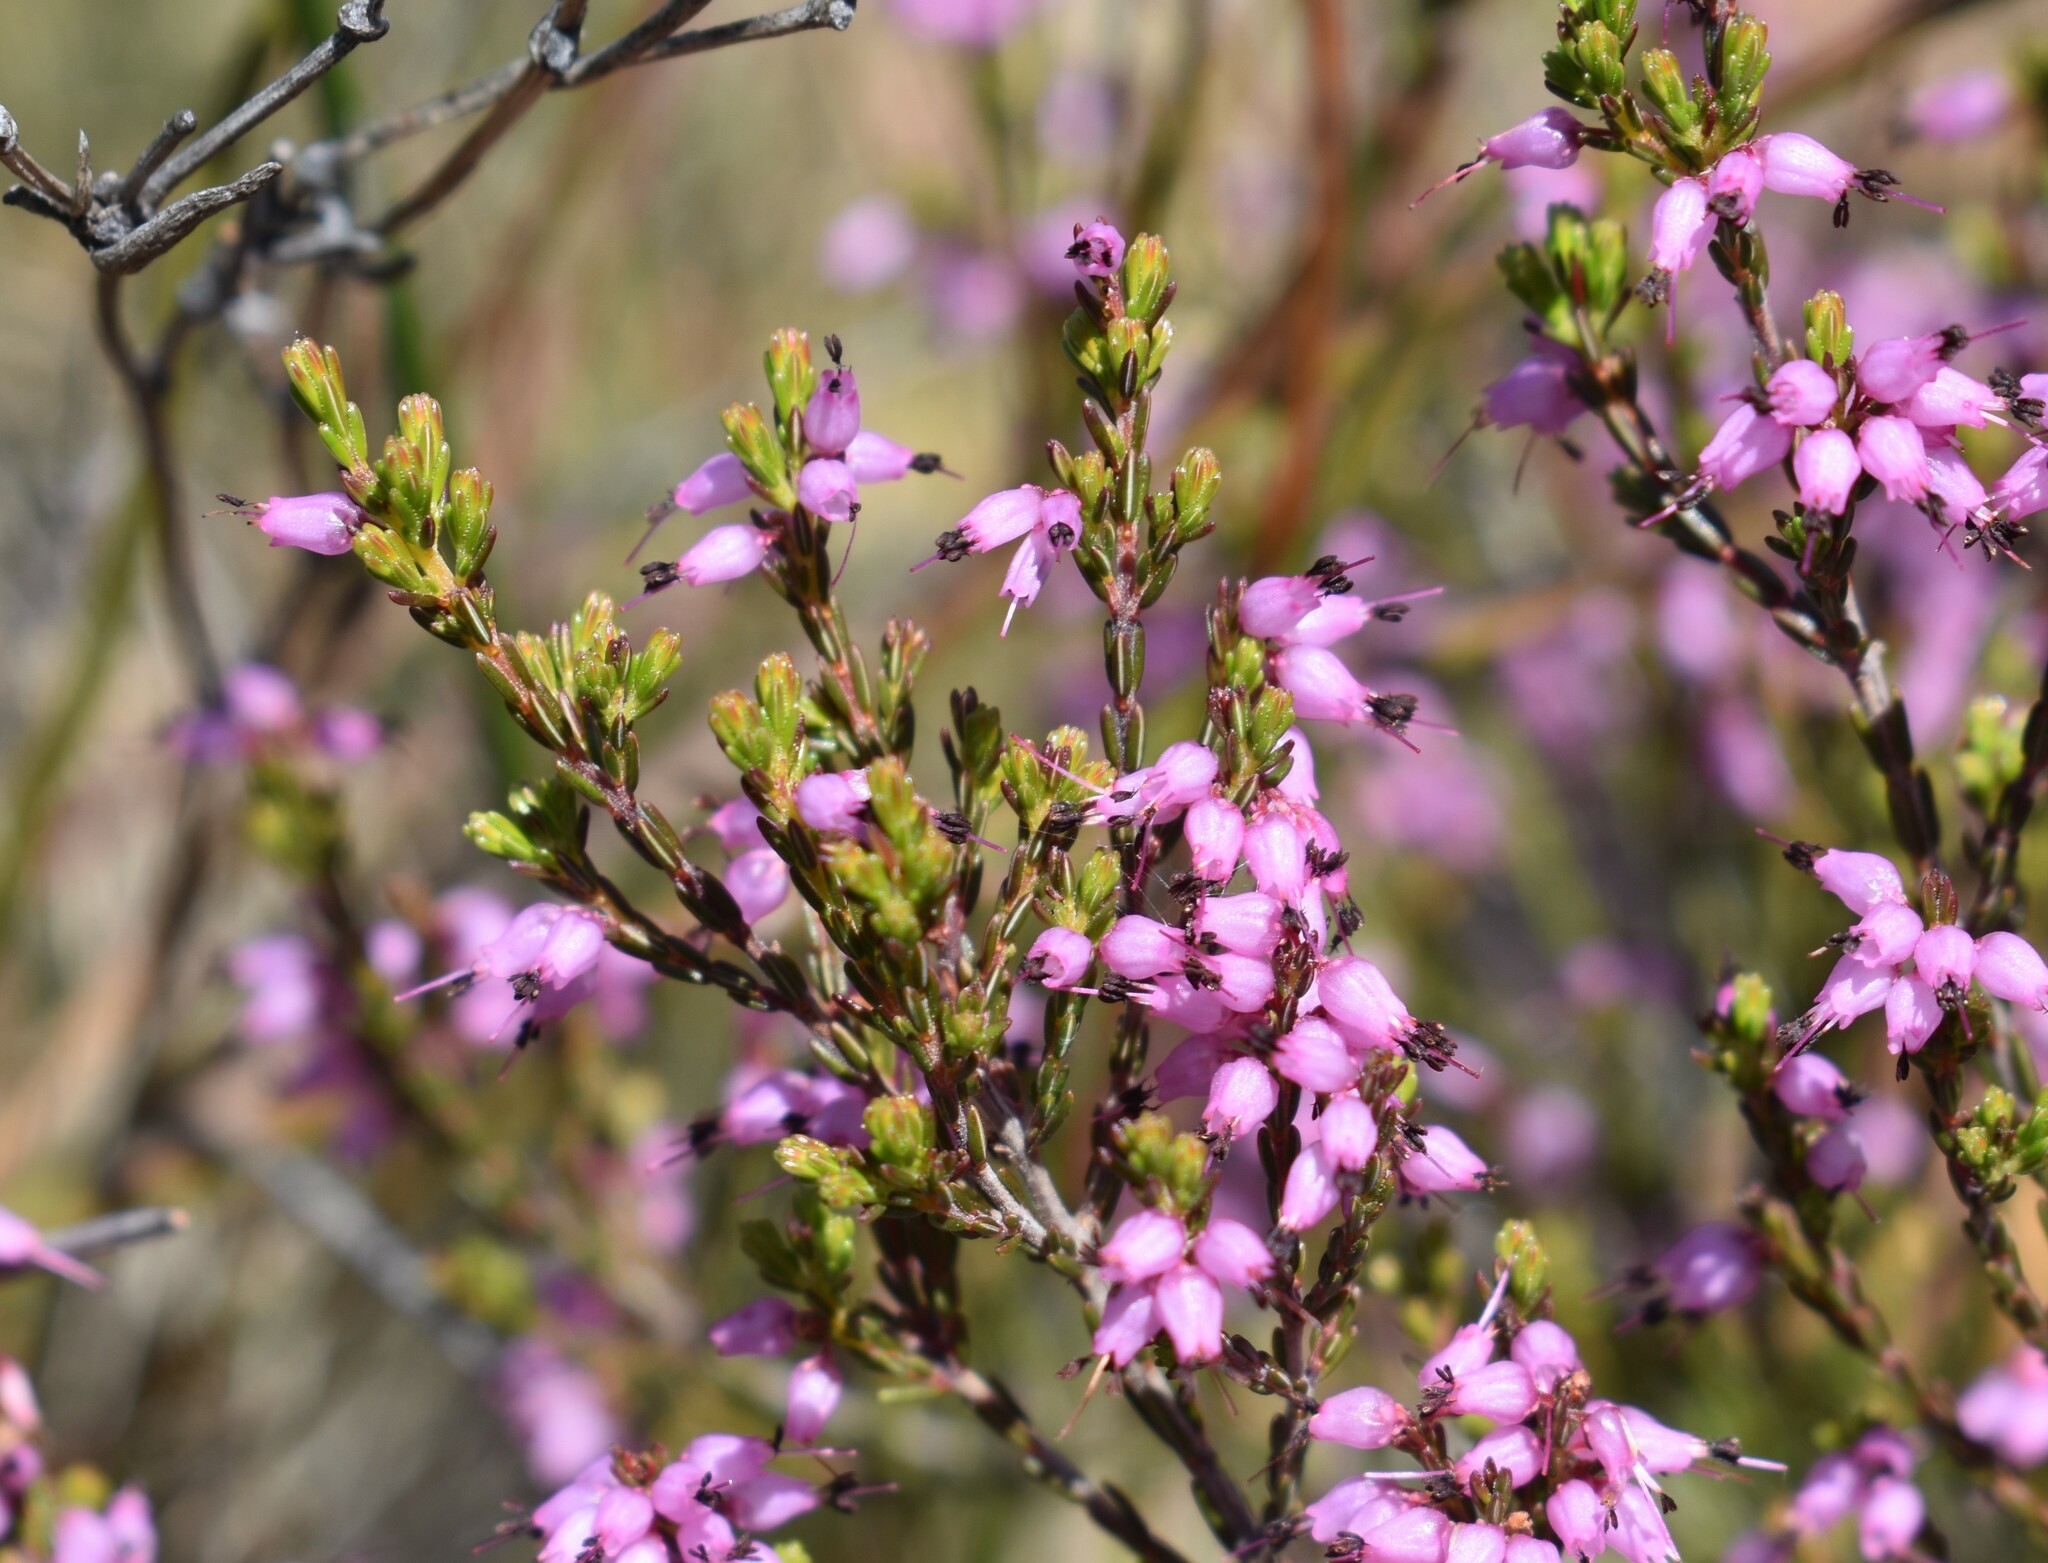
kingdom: Plantae
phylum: Tracheophyta
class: Magnoliopsida
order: Ericales
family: Ericaceae
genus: Erica
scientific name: Erica rosacea
